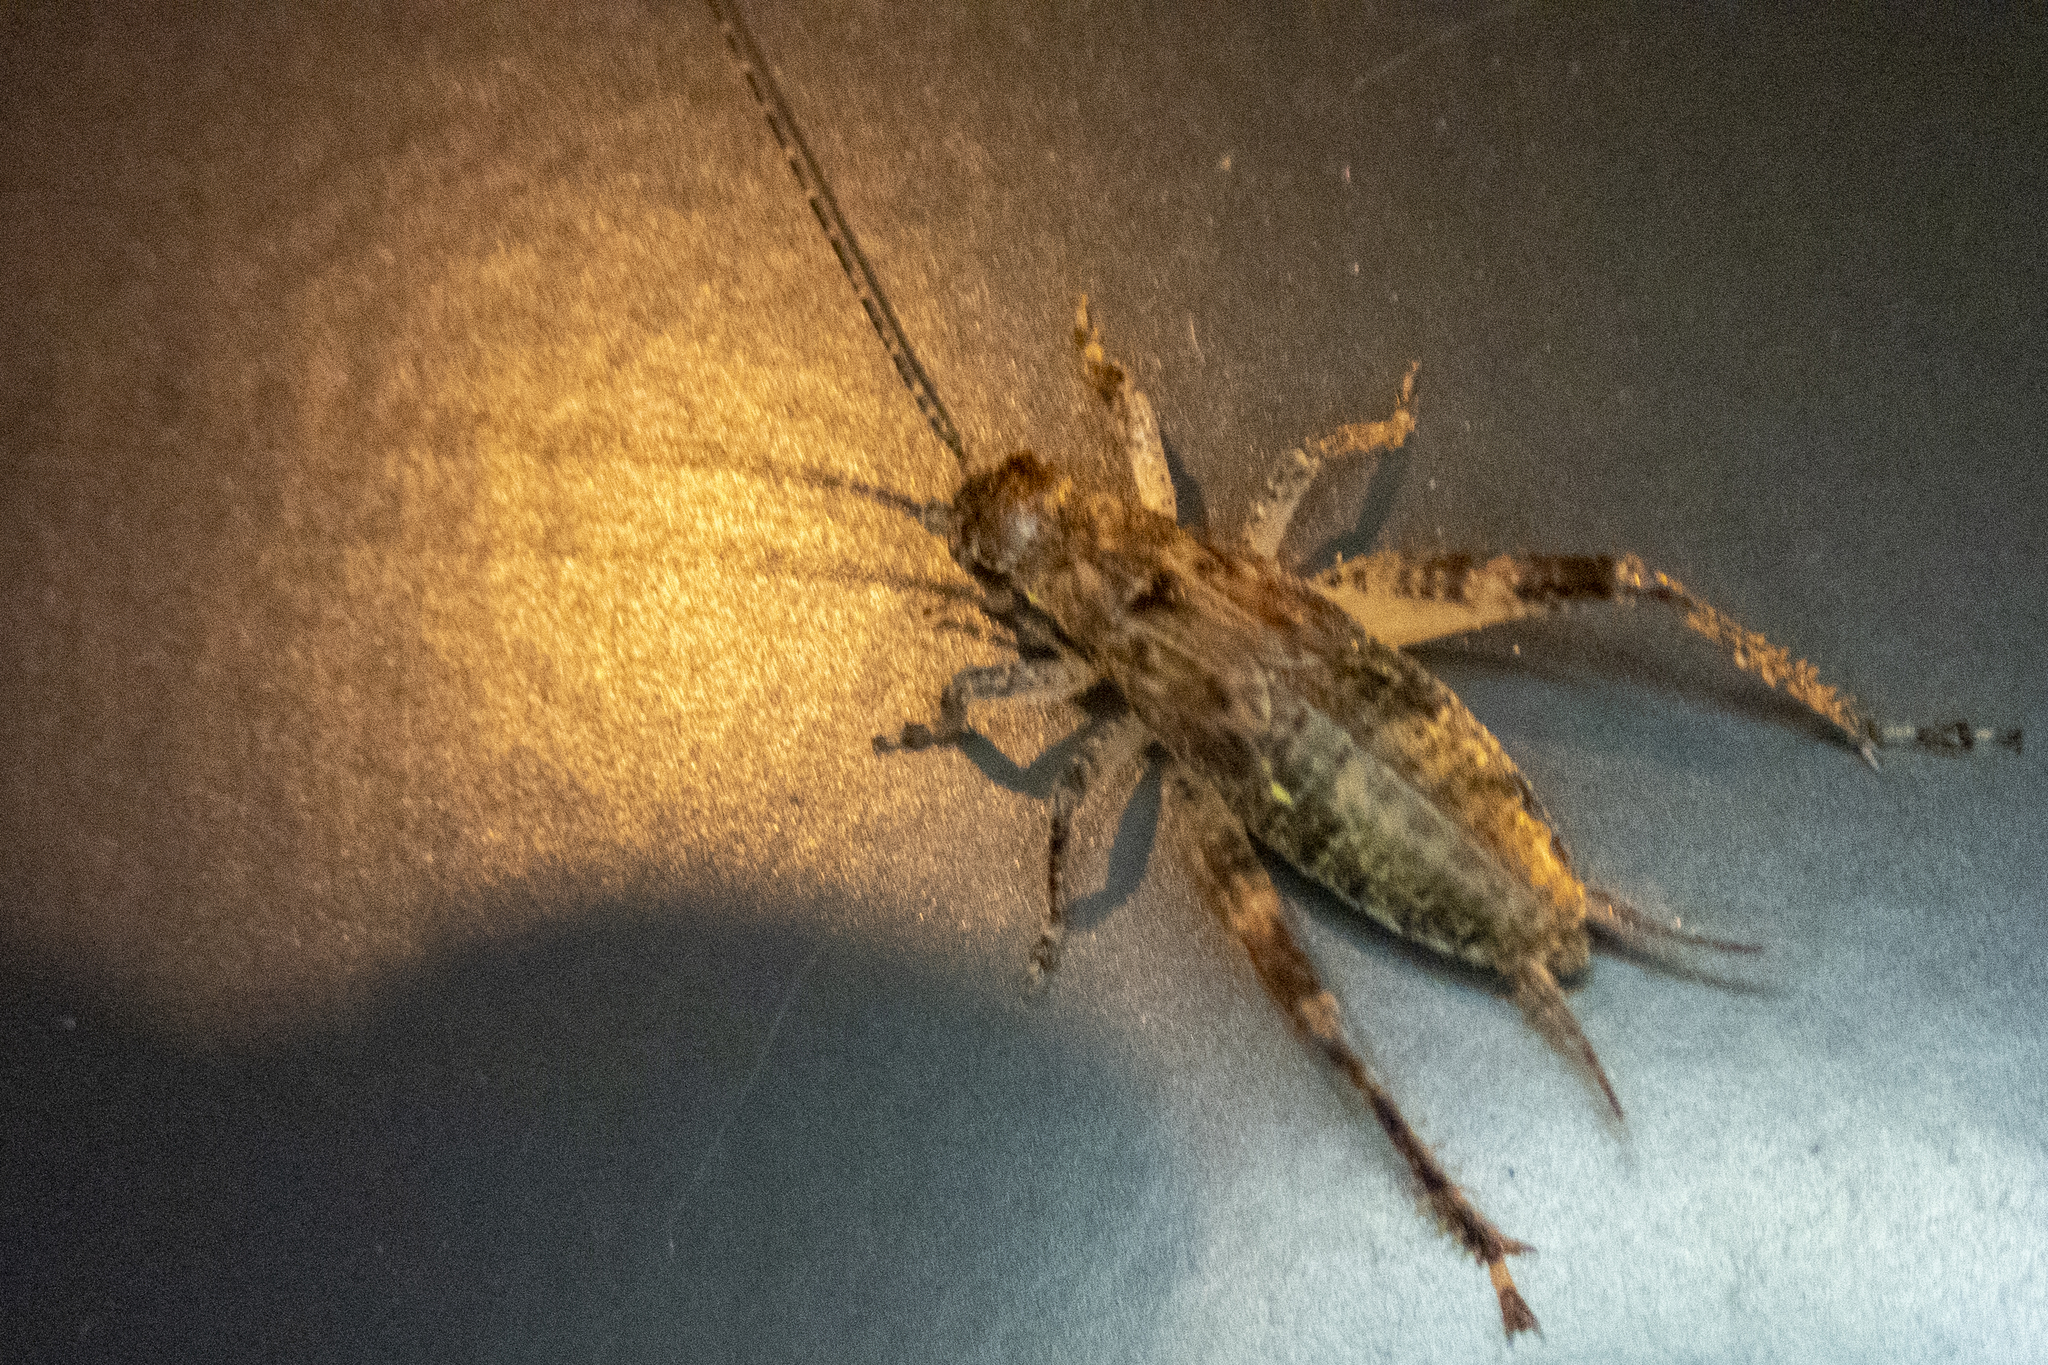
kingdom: Animalia
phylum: Arthropoda
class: Insecta
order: Orthoptera
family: Gryllidae
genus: Hapithus
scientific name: Hapithus saltator
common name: Jumping bush cricket
